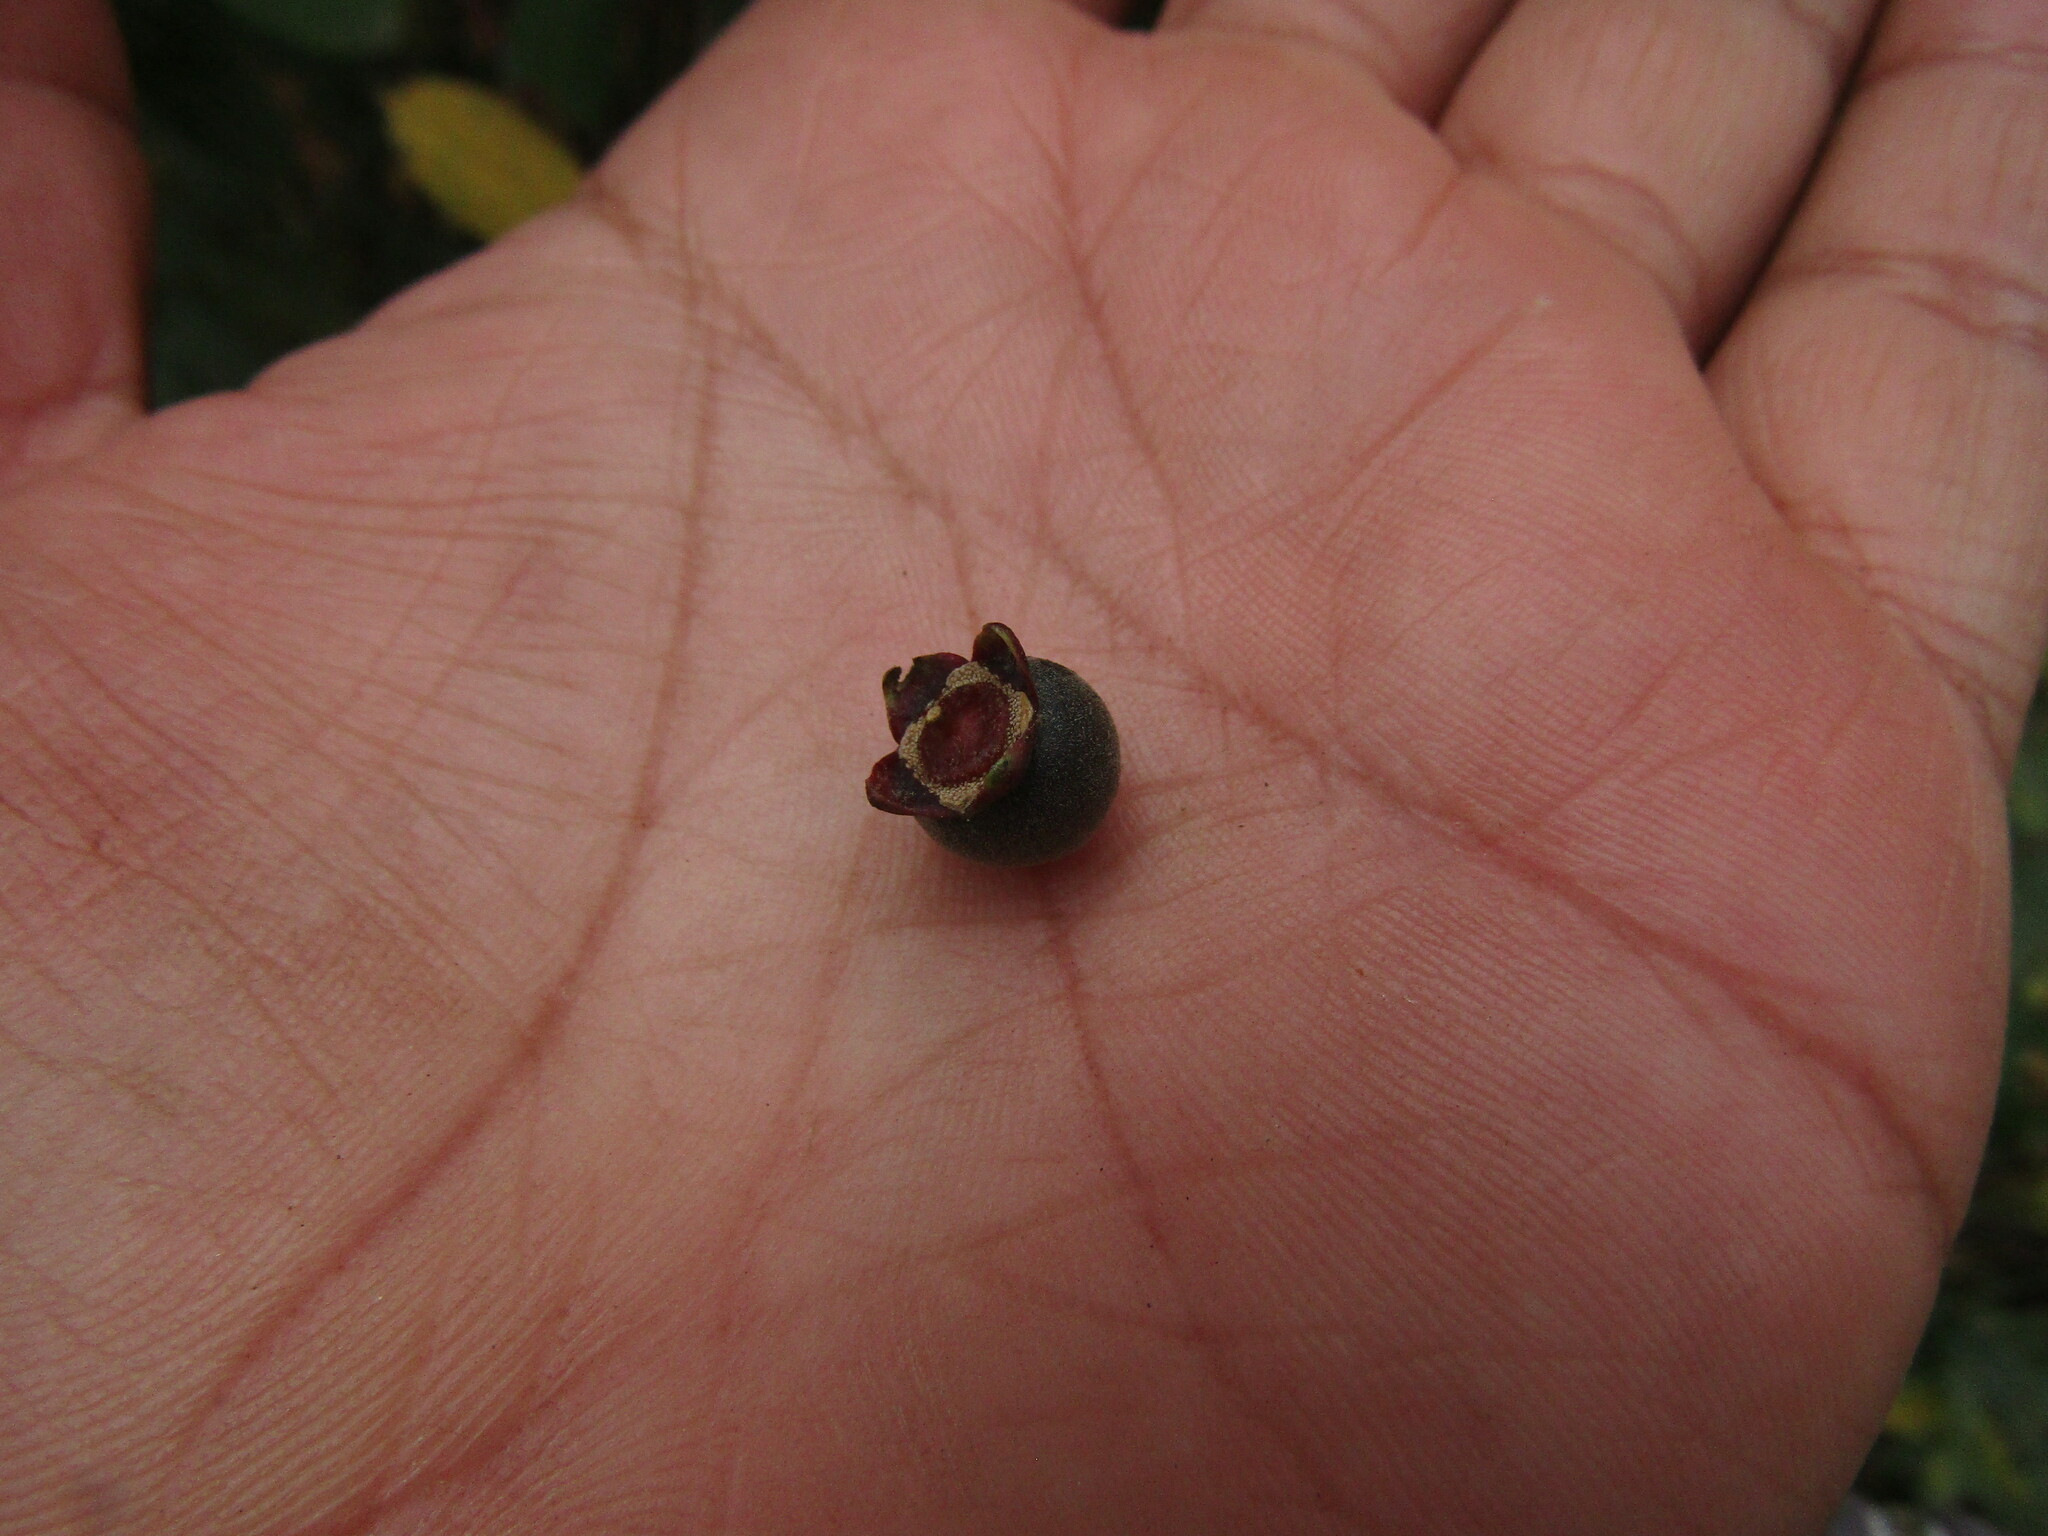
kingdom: Plantae
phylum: Tracheophyta
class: Magnoliopsida
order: Myrtales
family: Myrtaceae
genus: Myrceugenia
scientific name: Myrceugenia planipes
